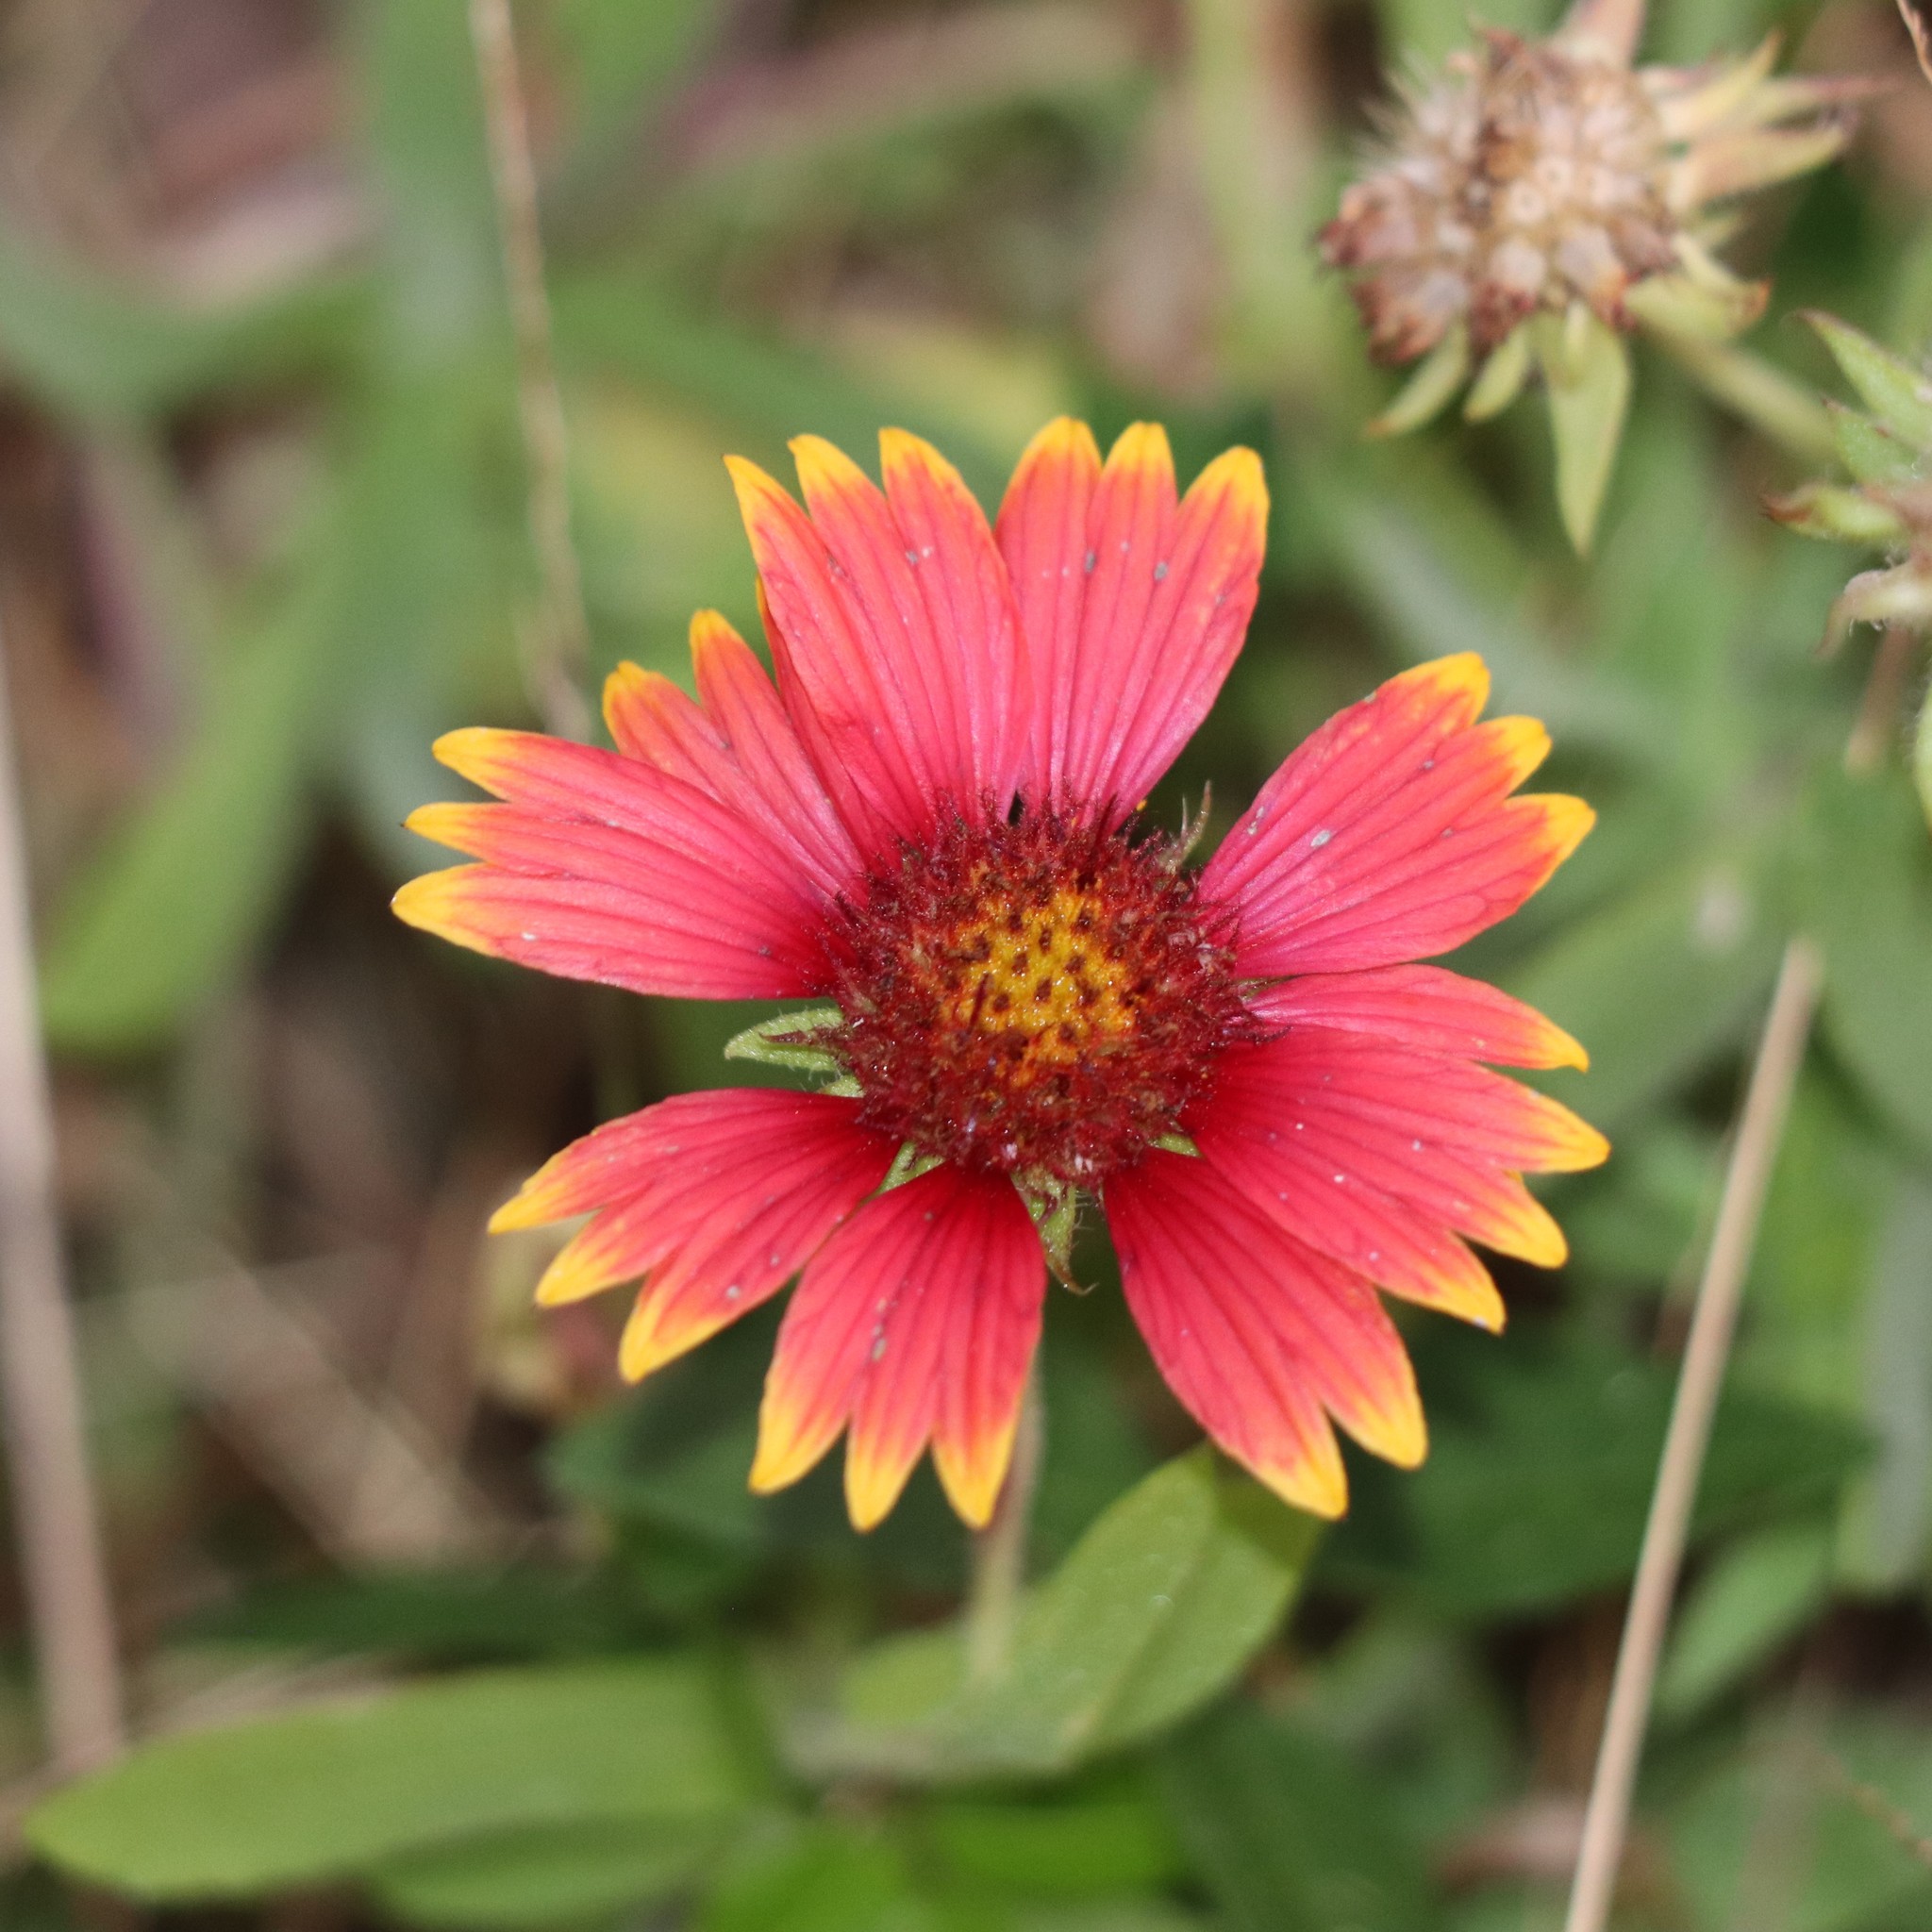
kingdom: Plantae
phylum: Tracheophyta
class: Magnoliopsida
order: Asterales
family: Asteraceae
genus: Gaillardia
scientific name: Gaillardia pulchella
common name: Firewheel
